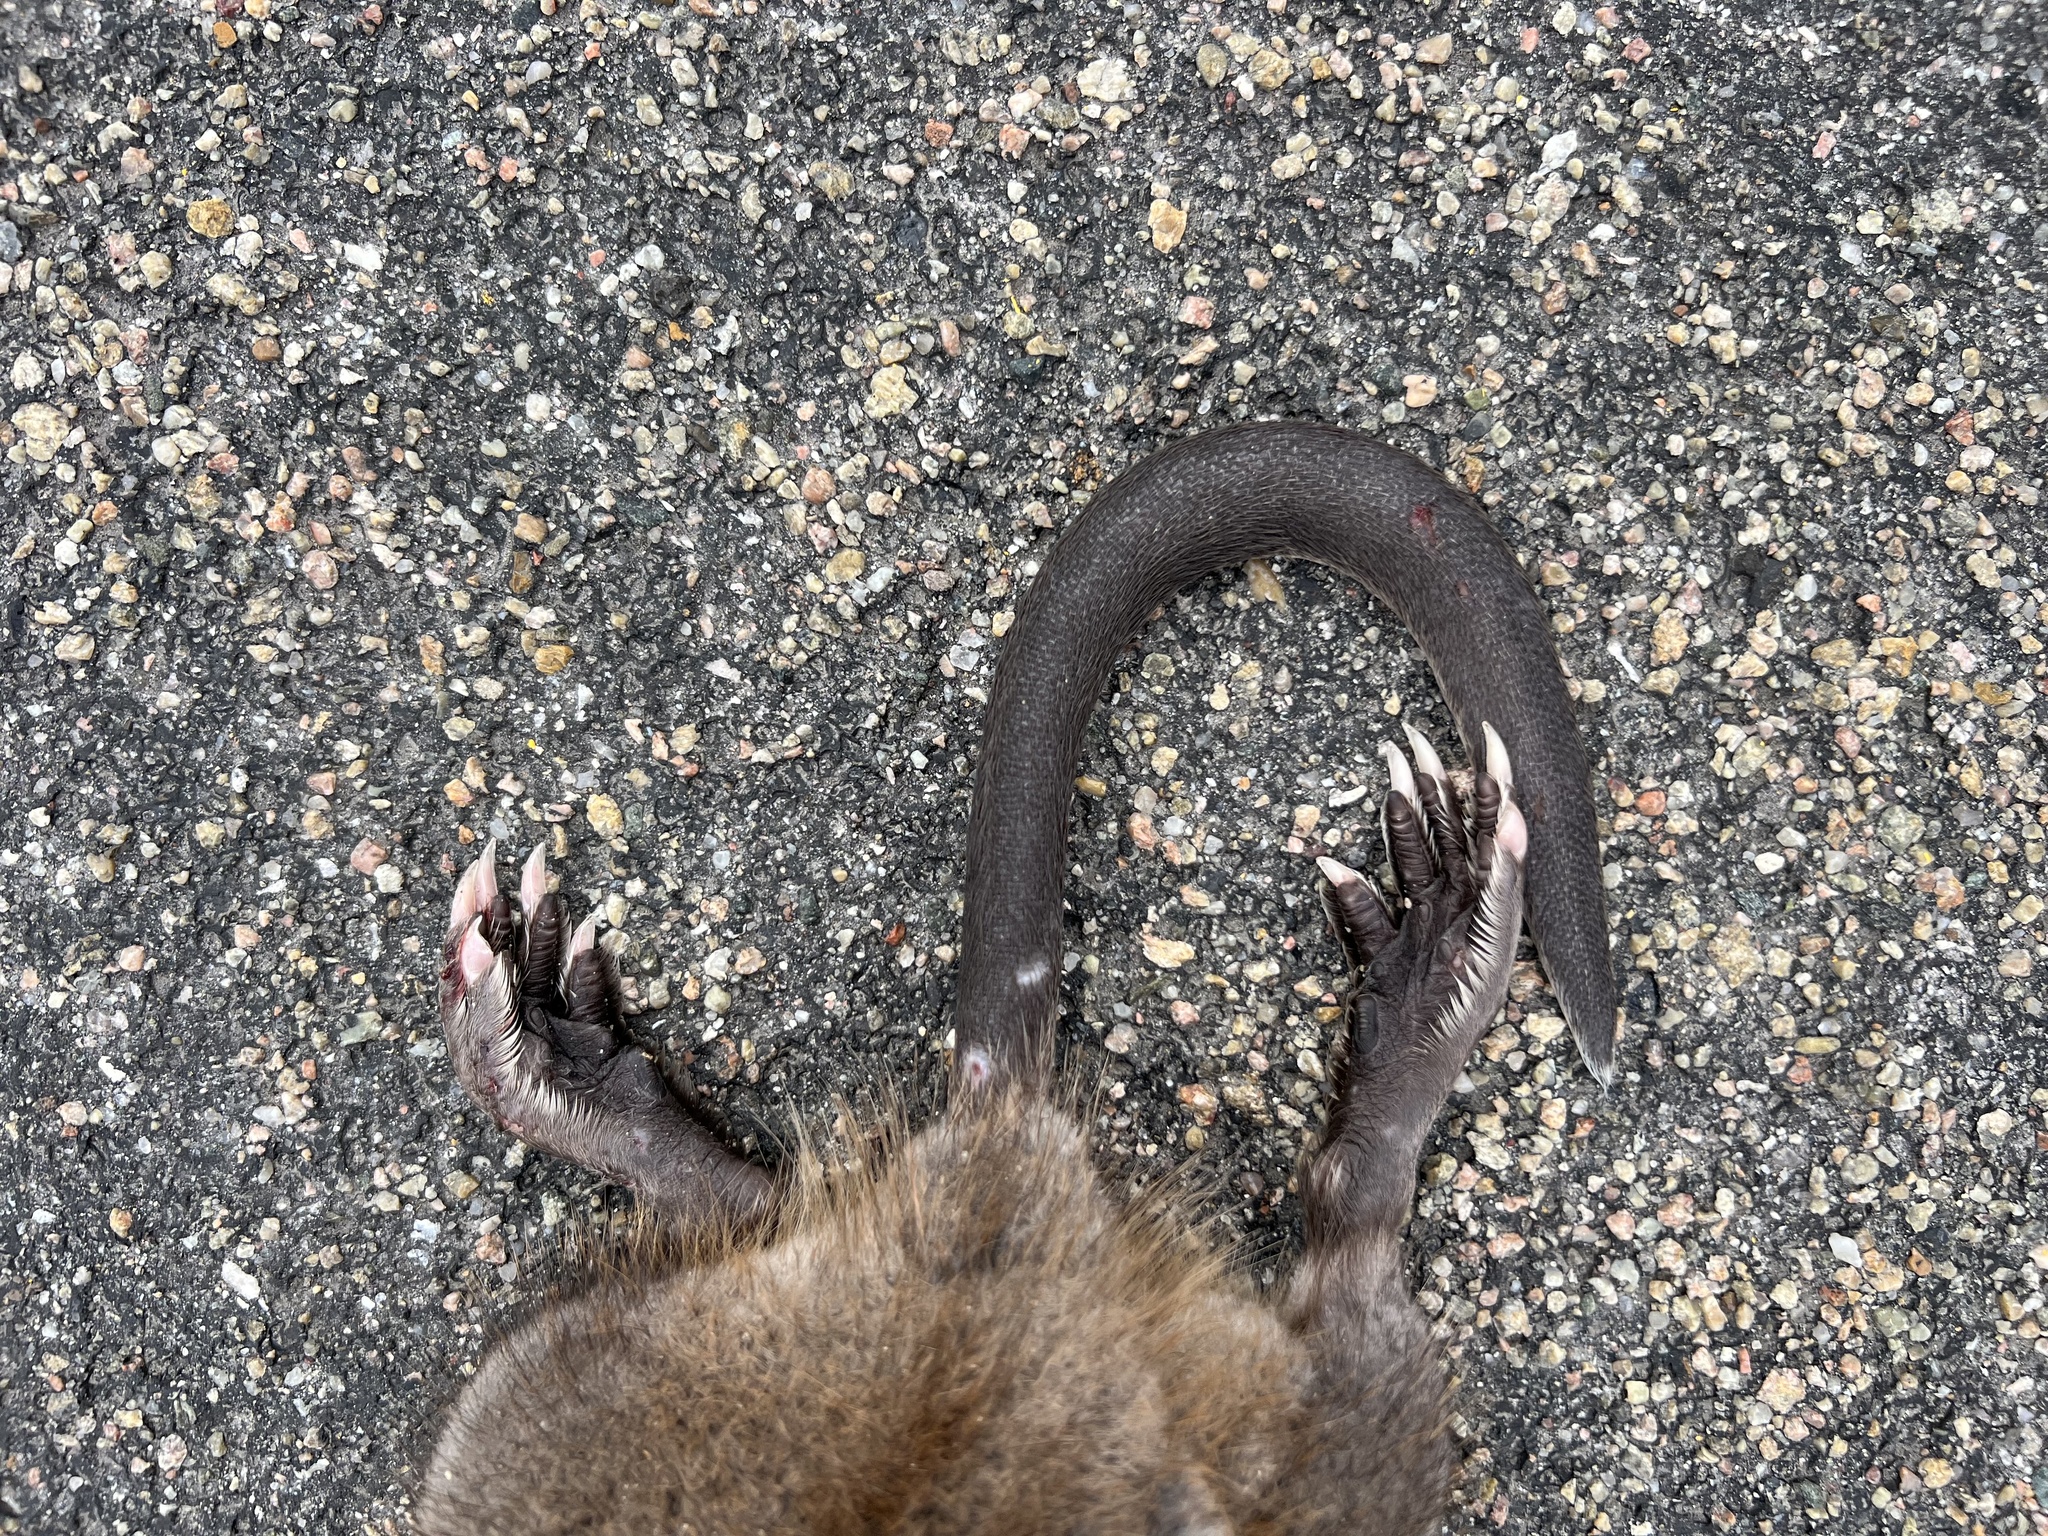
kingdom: Animalia
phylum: Chordata
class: Mammalia
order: Rodentia
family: Cricetidae
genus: Ondatra
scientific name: Ondatra zibethicus
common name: Muskrat
